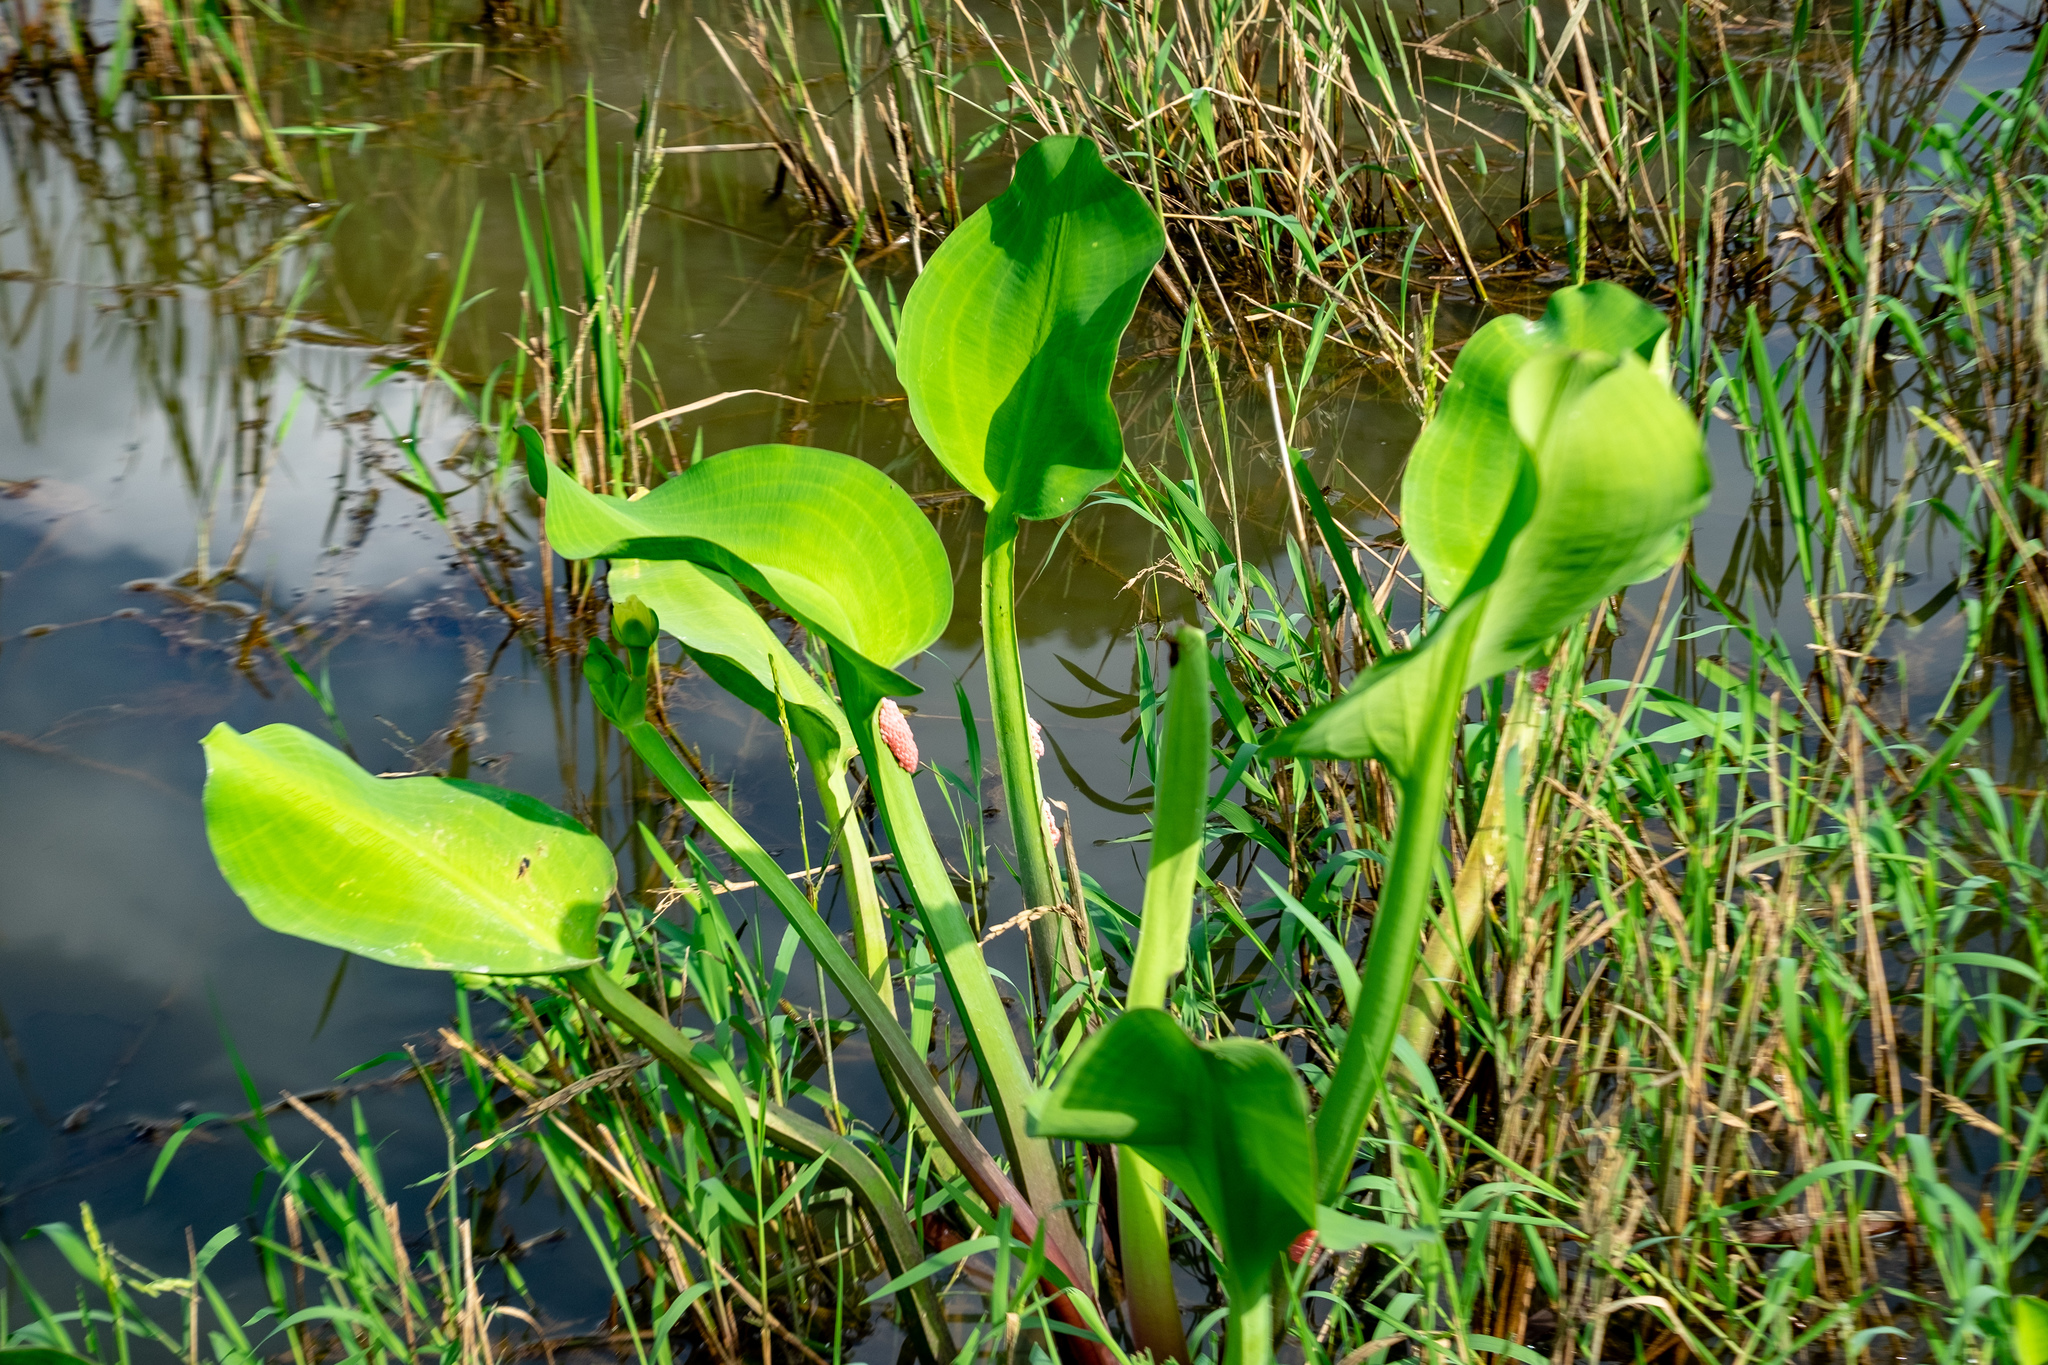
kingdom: Plantae
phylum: Tracheophyta
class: Liliopsida
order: Alismatales
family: Alismataceae
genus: Limnocharis
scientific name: Limnocharis flava
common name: Sawah-flower-rush
